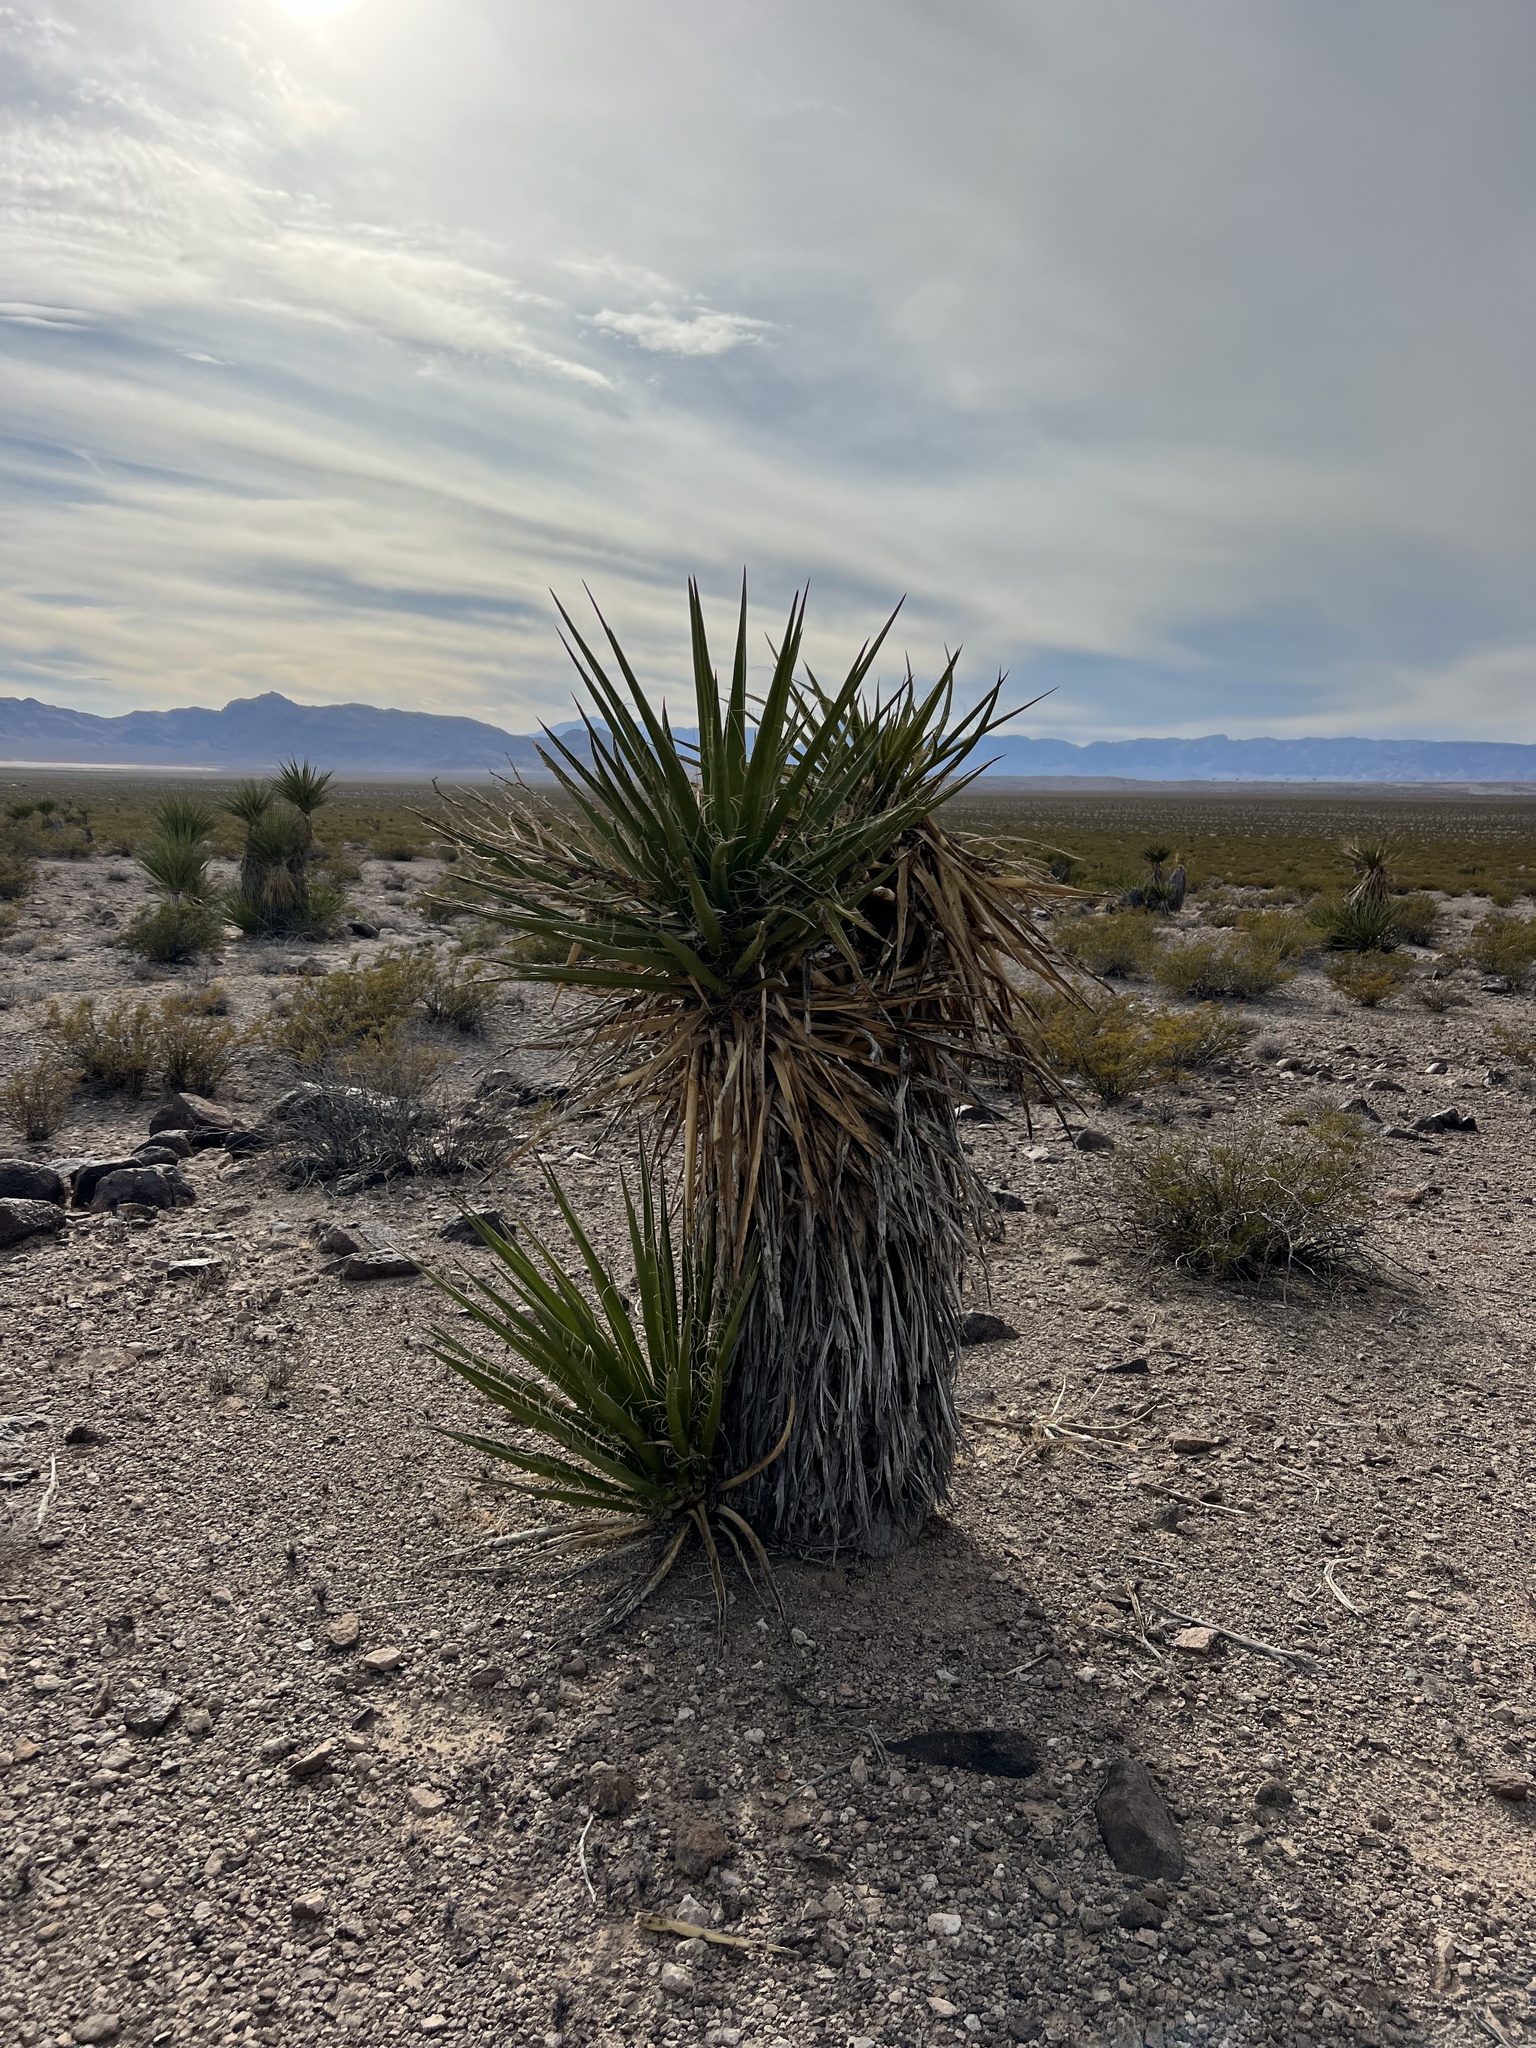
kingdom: Plantae
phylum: Tracheophyta
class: Liliopsida
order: Asparagales
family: Asparagaceae
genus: Yucca
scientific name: Yucca schidigera
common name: Mojave yucca
